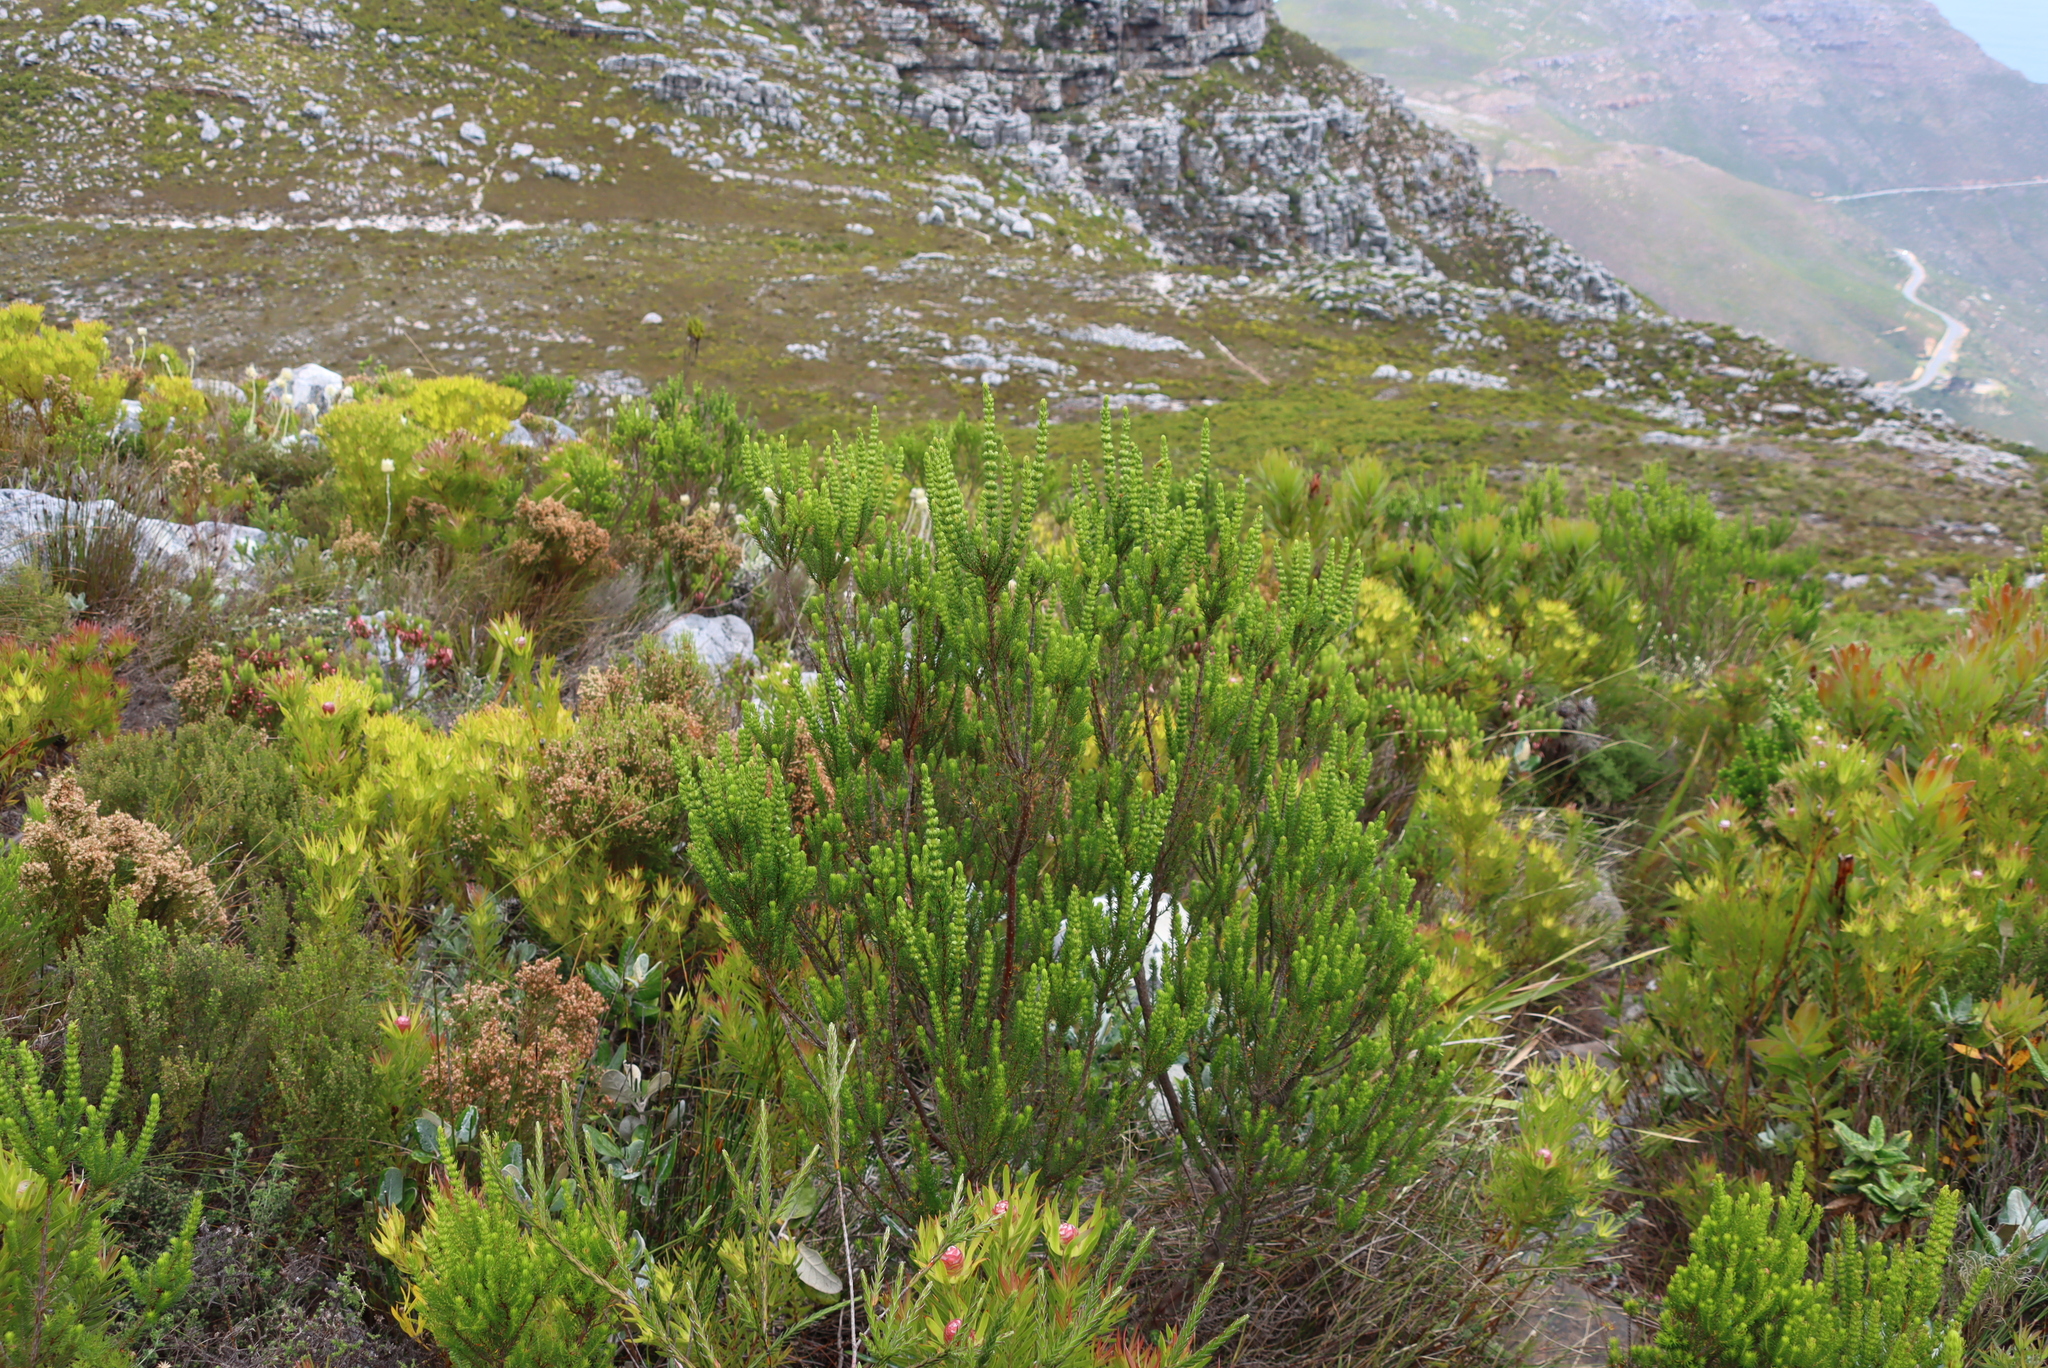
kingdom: Plantae
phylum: Tracheophyta
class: Magnoliopsida
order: Ericales
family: Ericaceae
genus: Erica
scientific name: Erica mammosa
